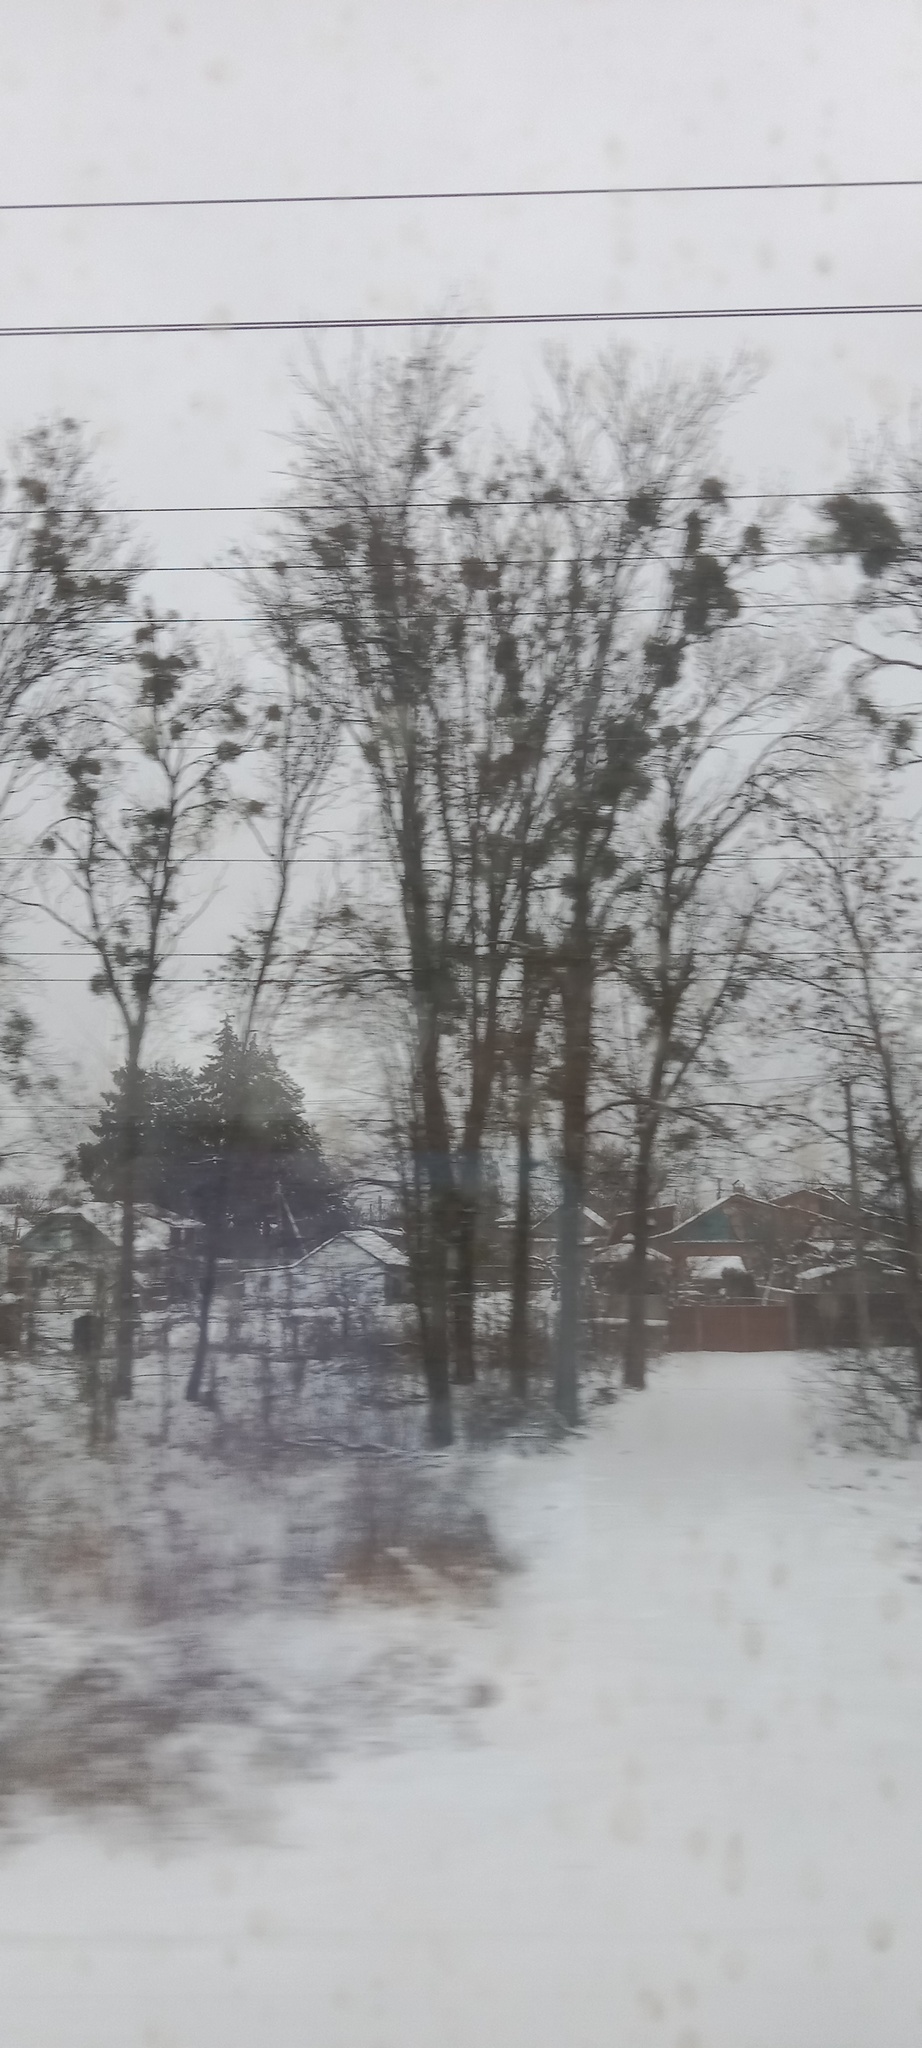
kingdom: Plantae
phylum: Tracheophyta
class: Magnoliopsida
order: Santalales
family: Viscaceae
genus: Viscum
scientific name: Viscum album
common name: Mistletoe
